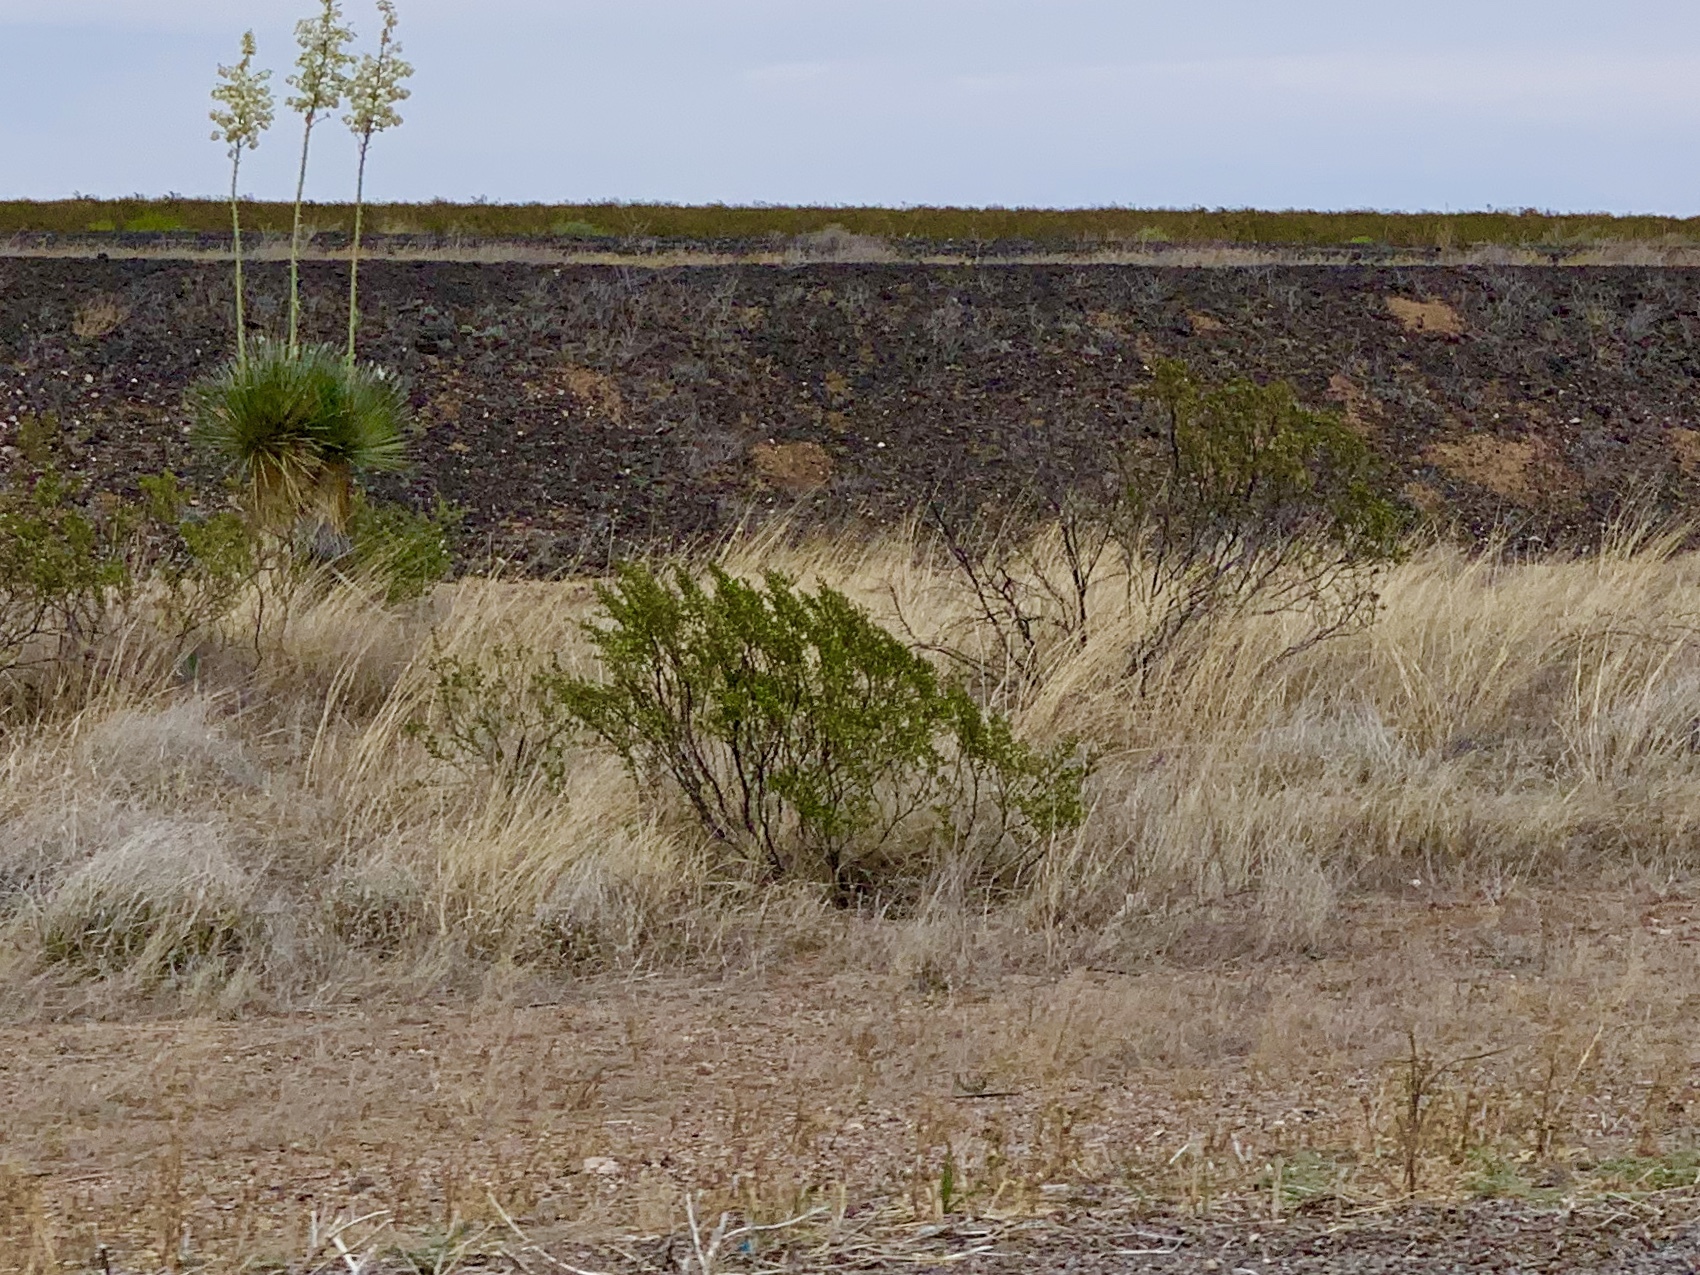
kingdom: Plantae
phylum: Tracheophyta
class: Magnoliopsida
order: Zygophyllales
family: Zygophyllaceae
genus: Larrea
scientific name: Larrea tridentata
